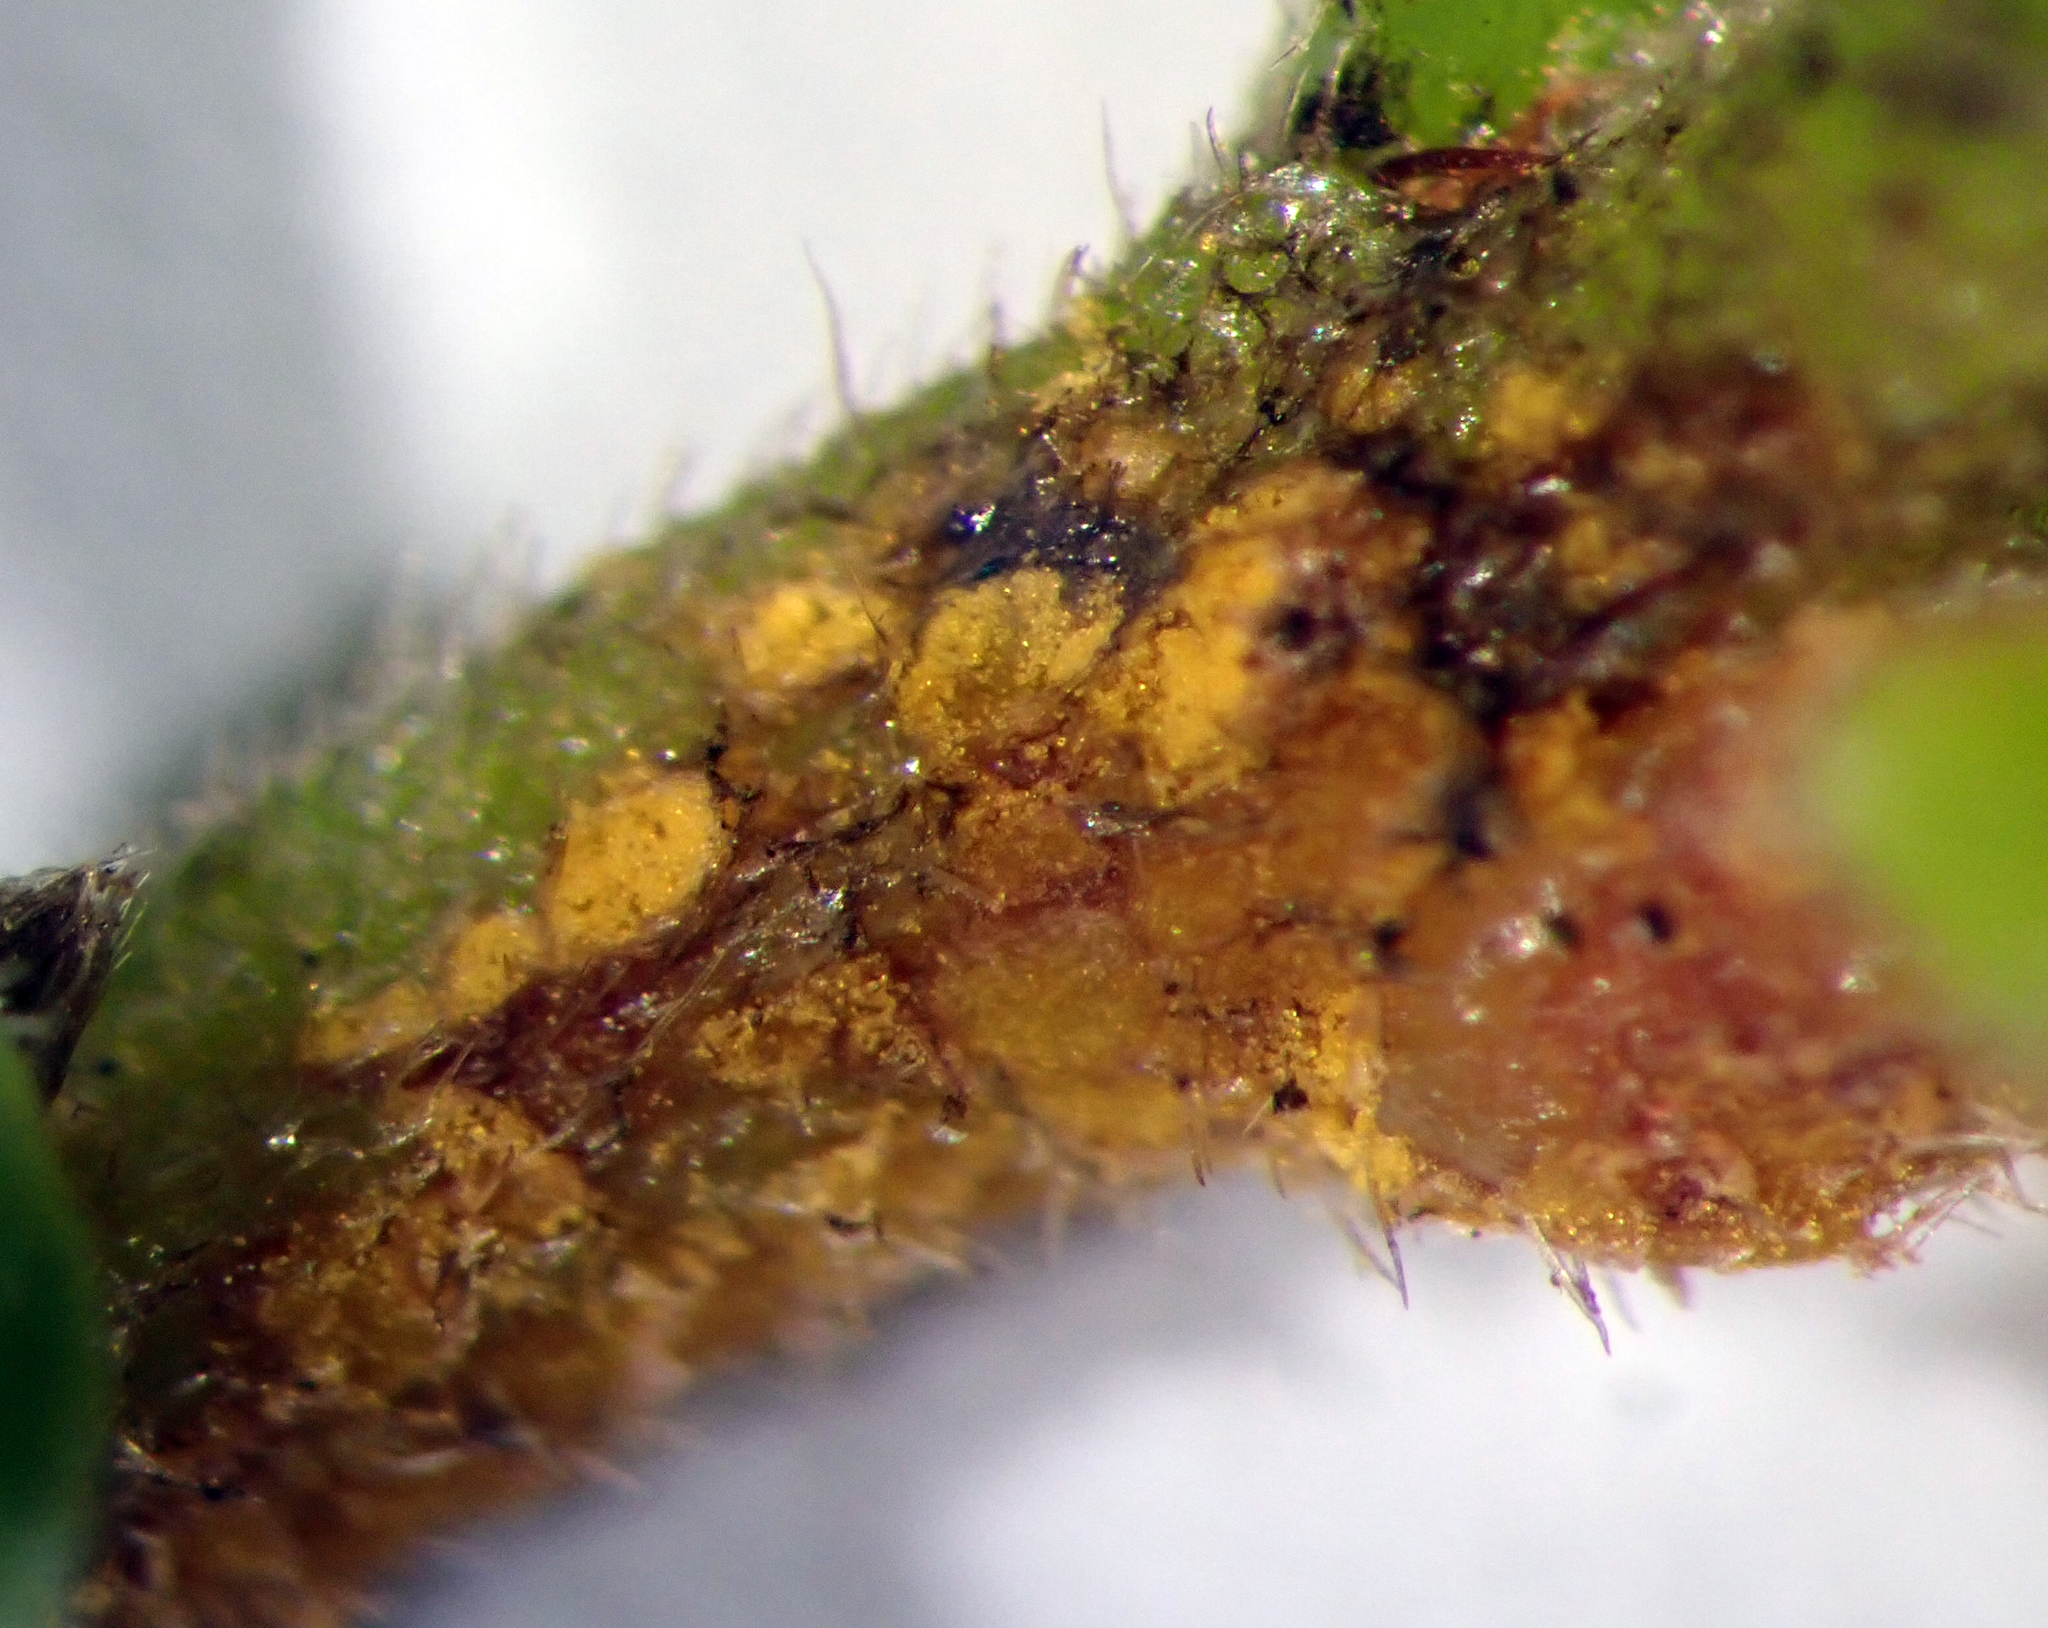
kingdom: Fungi
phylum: Basidiomycota
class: Pucciniomycetes
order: Pucciniales
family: Sphaerophragmiaceae
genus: Austropuccinia
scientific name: Austropuccinia psidii
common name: Myrtle rust
